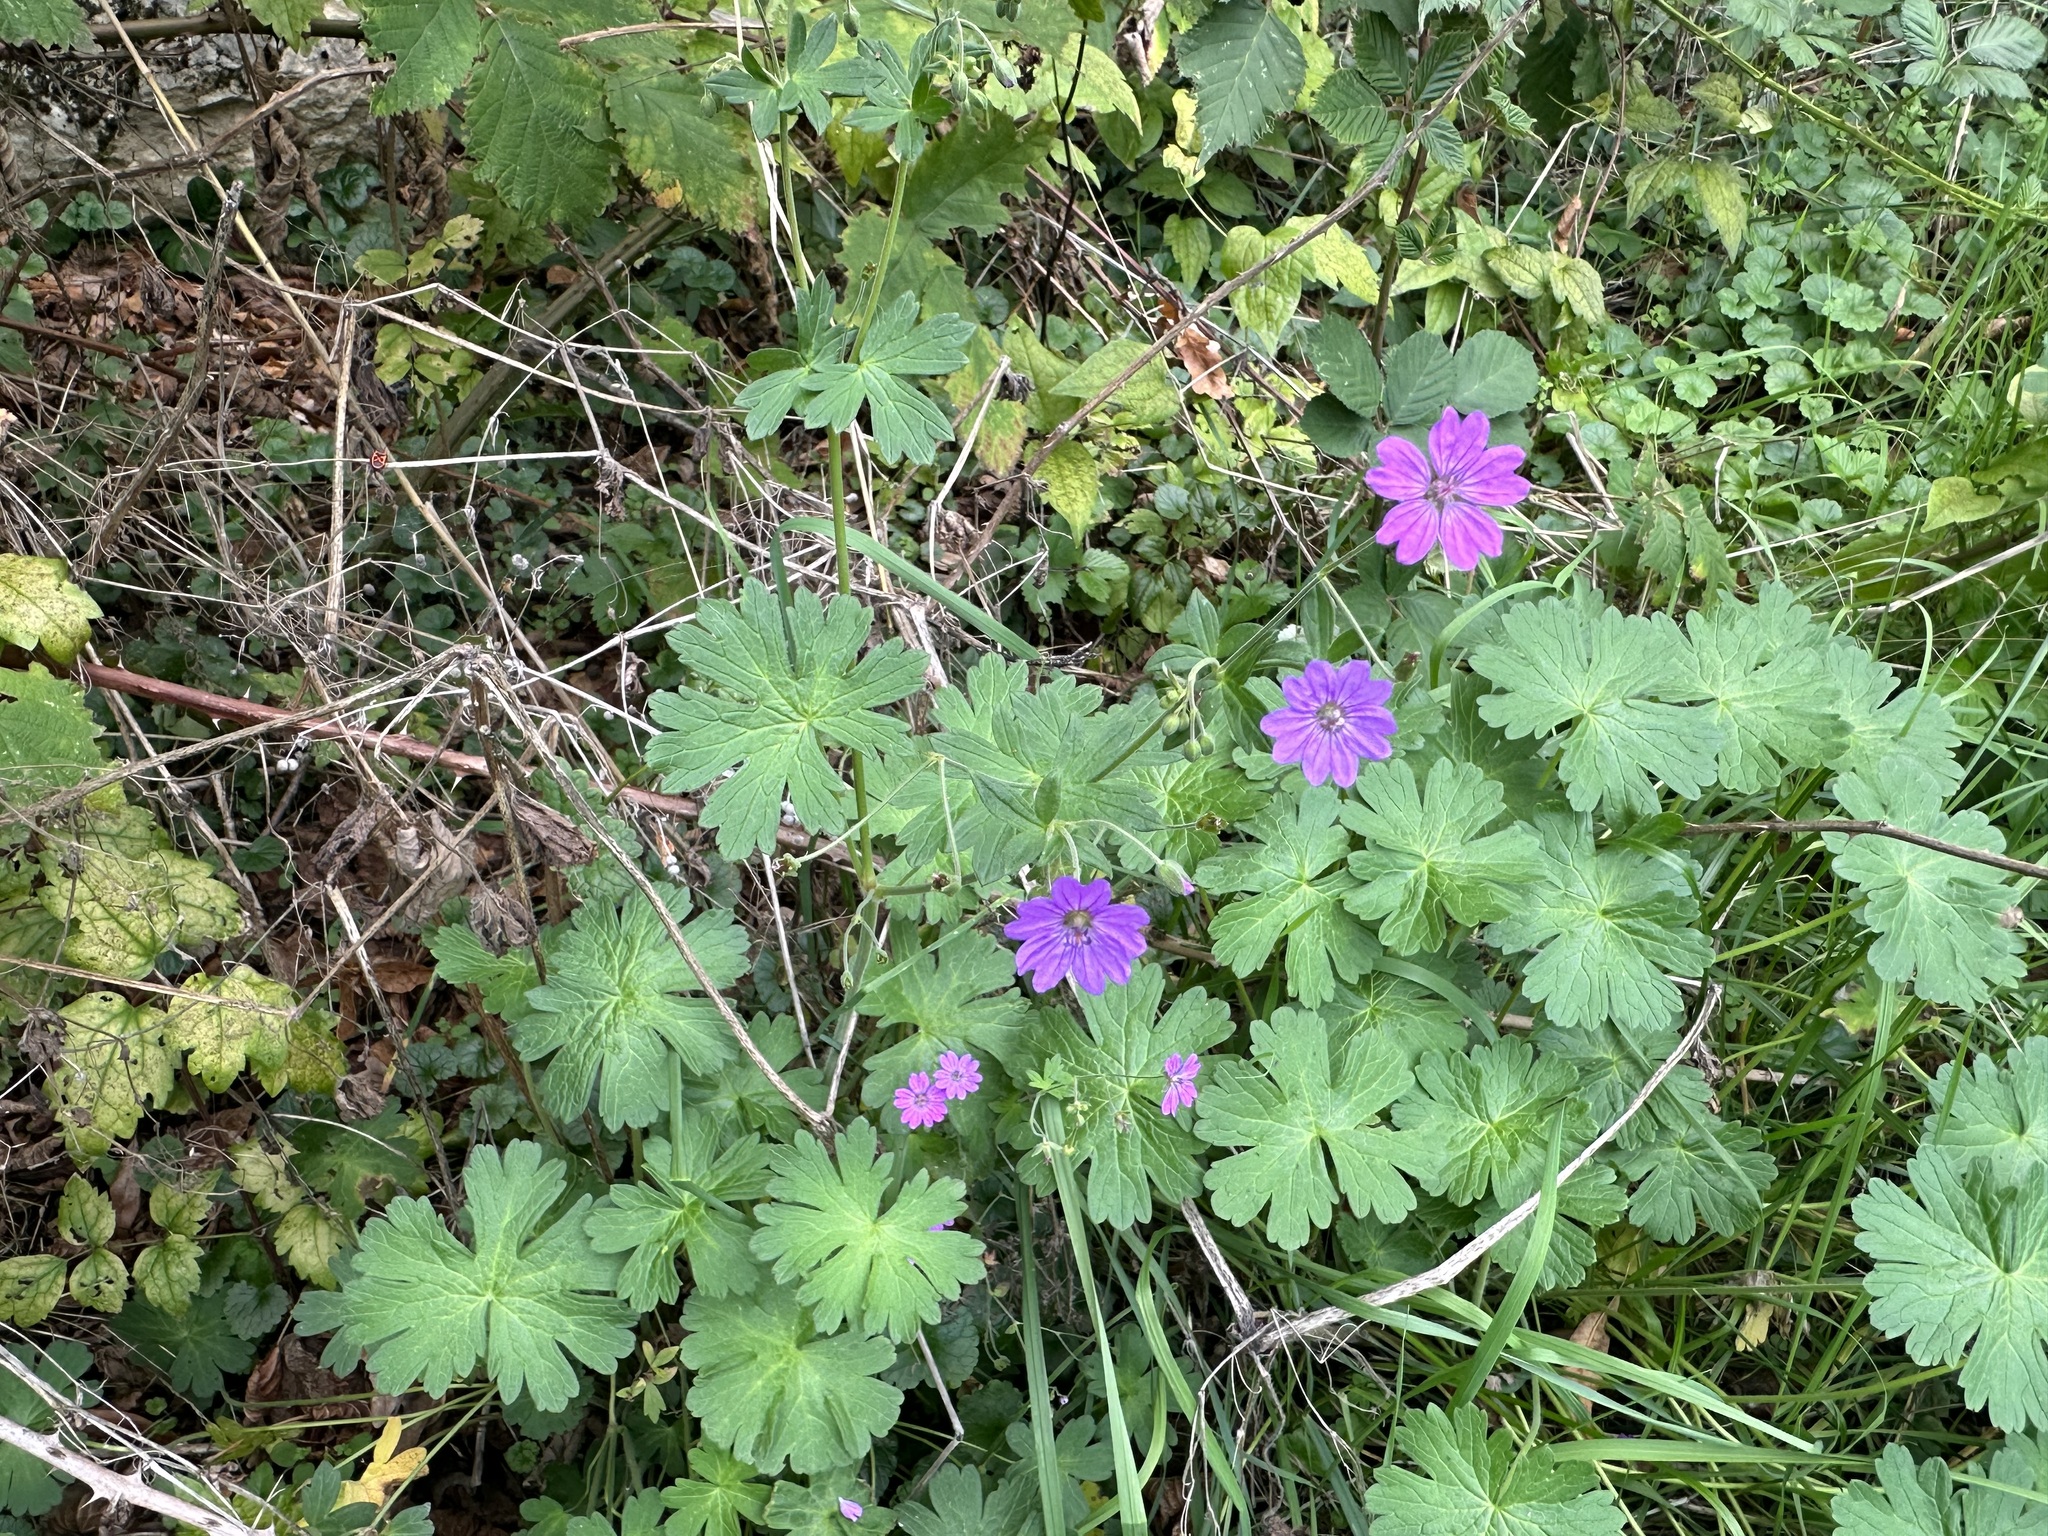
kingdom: Plantae
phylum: Tracheophyta
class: Magnoliopsida
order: Geraniales
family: Geraniaceae
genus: Geranium
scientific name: Geranium pyrenaicum
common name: Hedgerow crane's-bill
